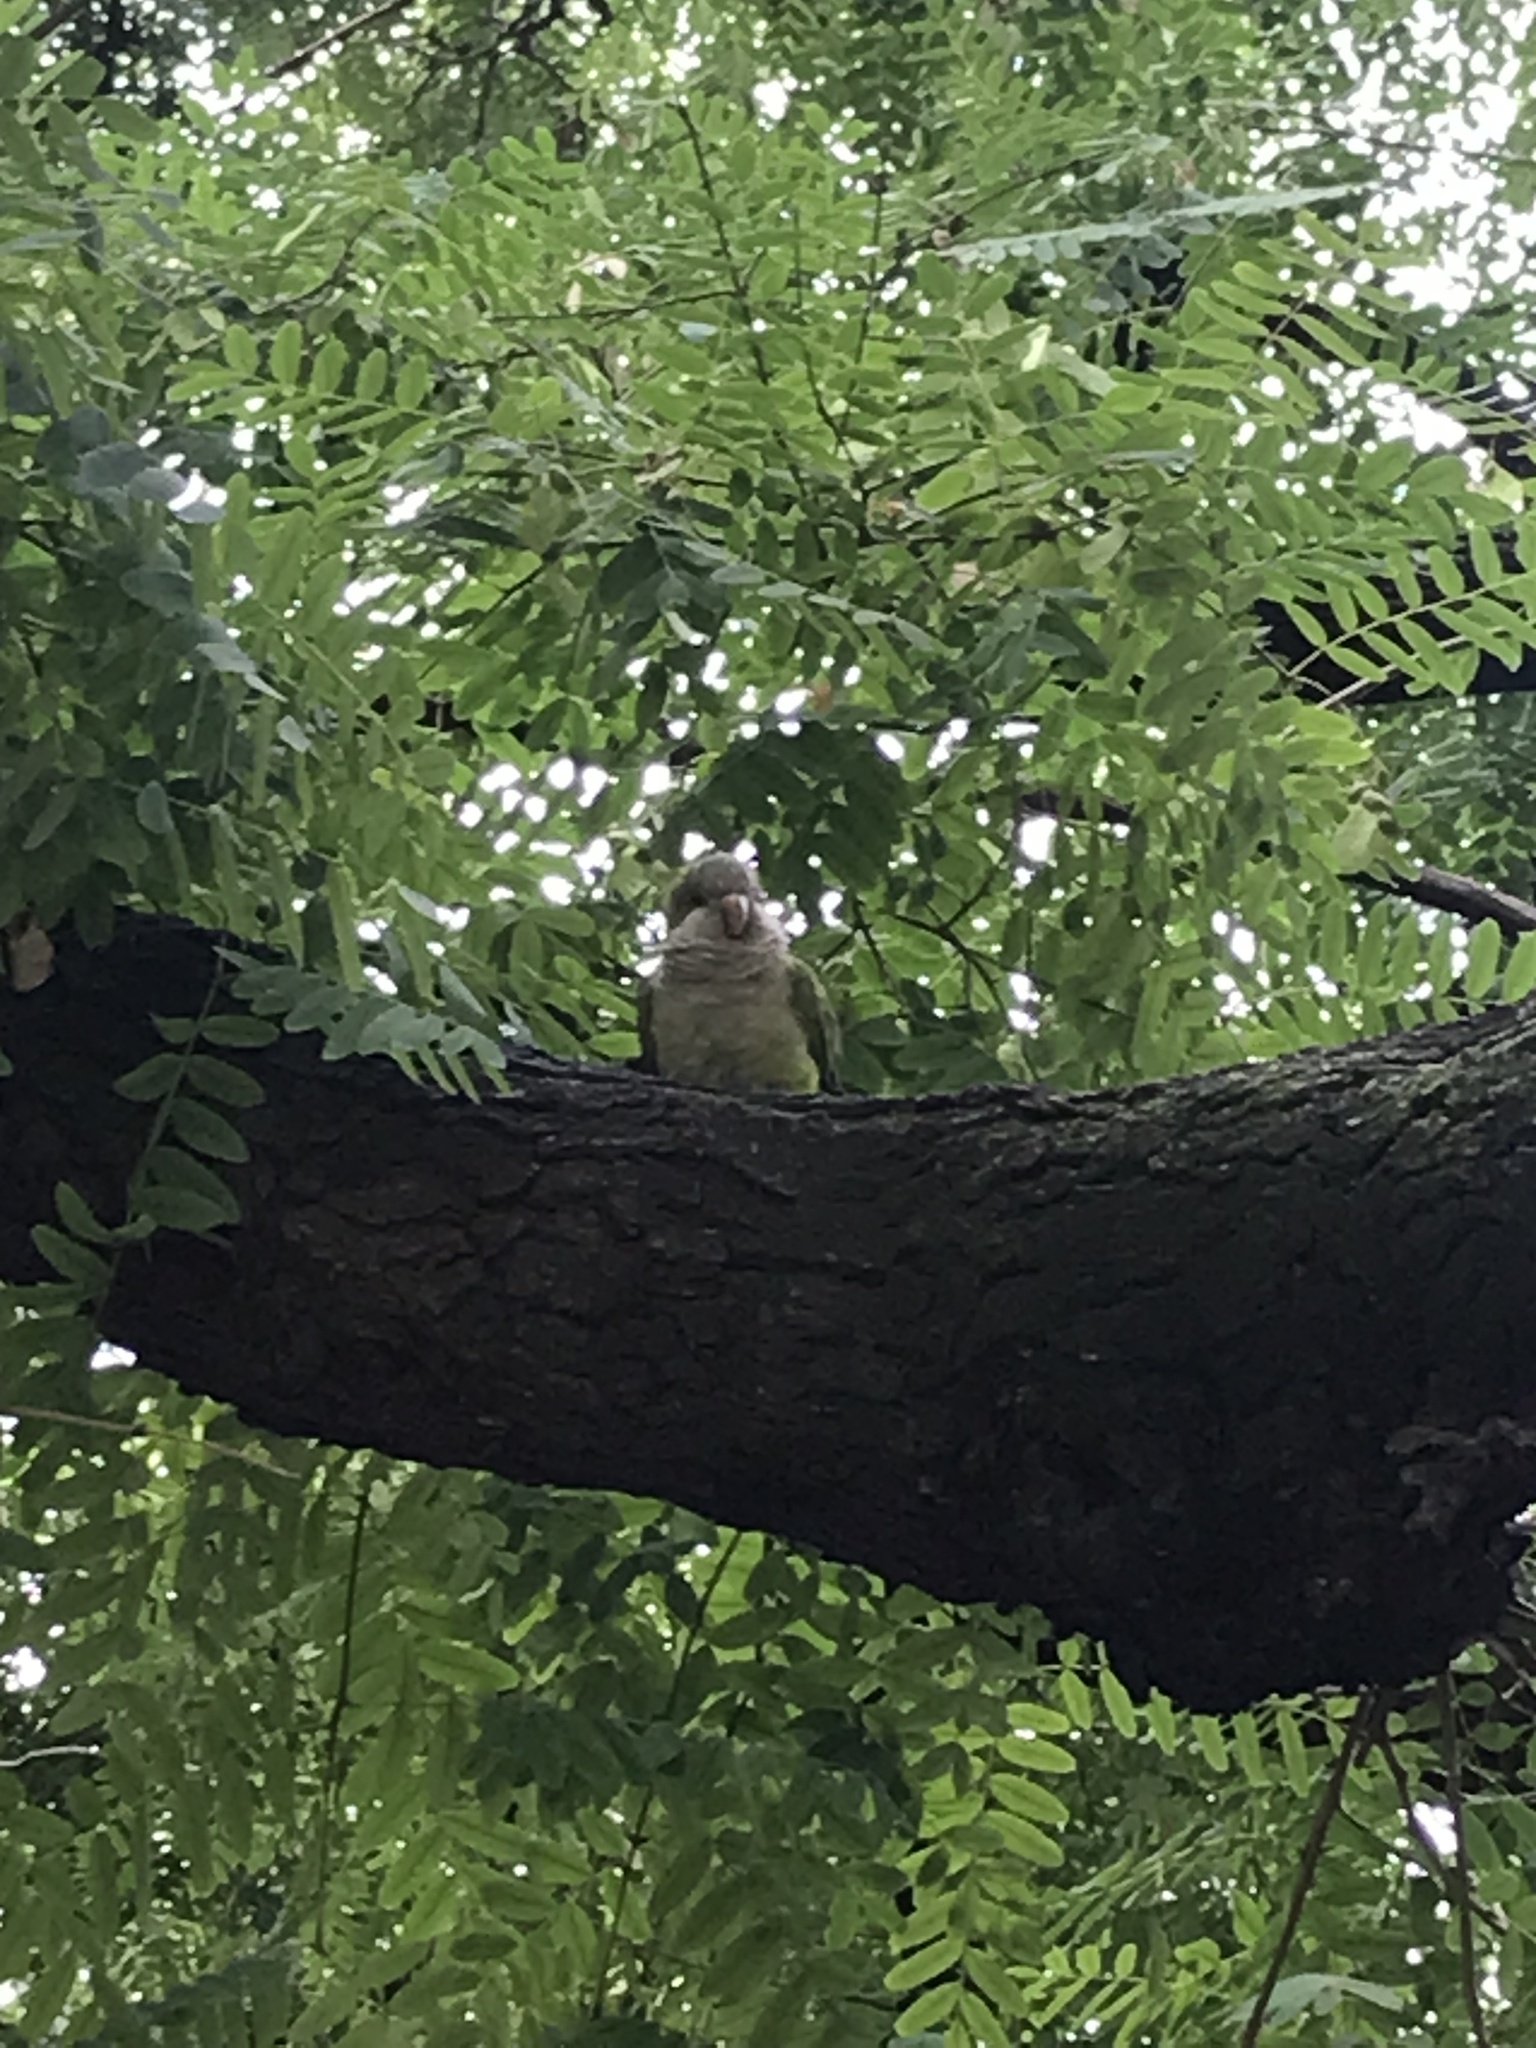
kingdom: Animalia
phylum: Chordata
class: Aves
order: Psittaciformes
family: Psittacidae
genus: Myiopsitta
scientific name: Myiopsitta monachus
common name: Monk parakeet
